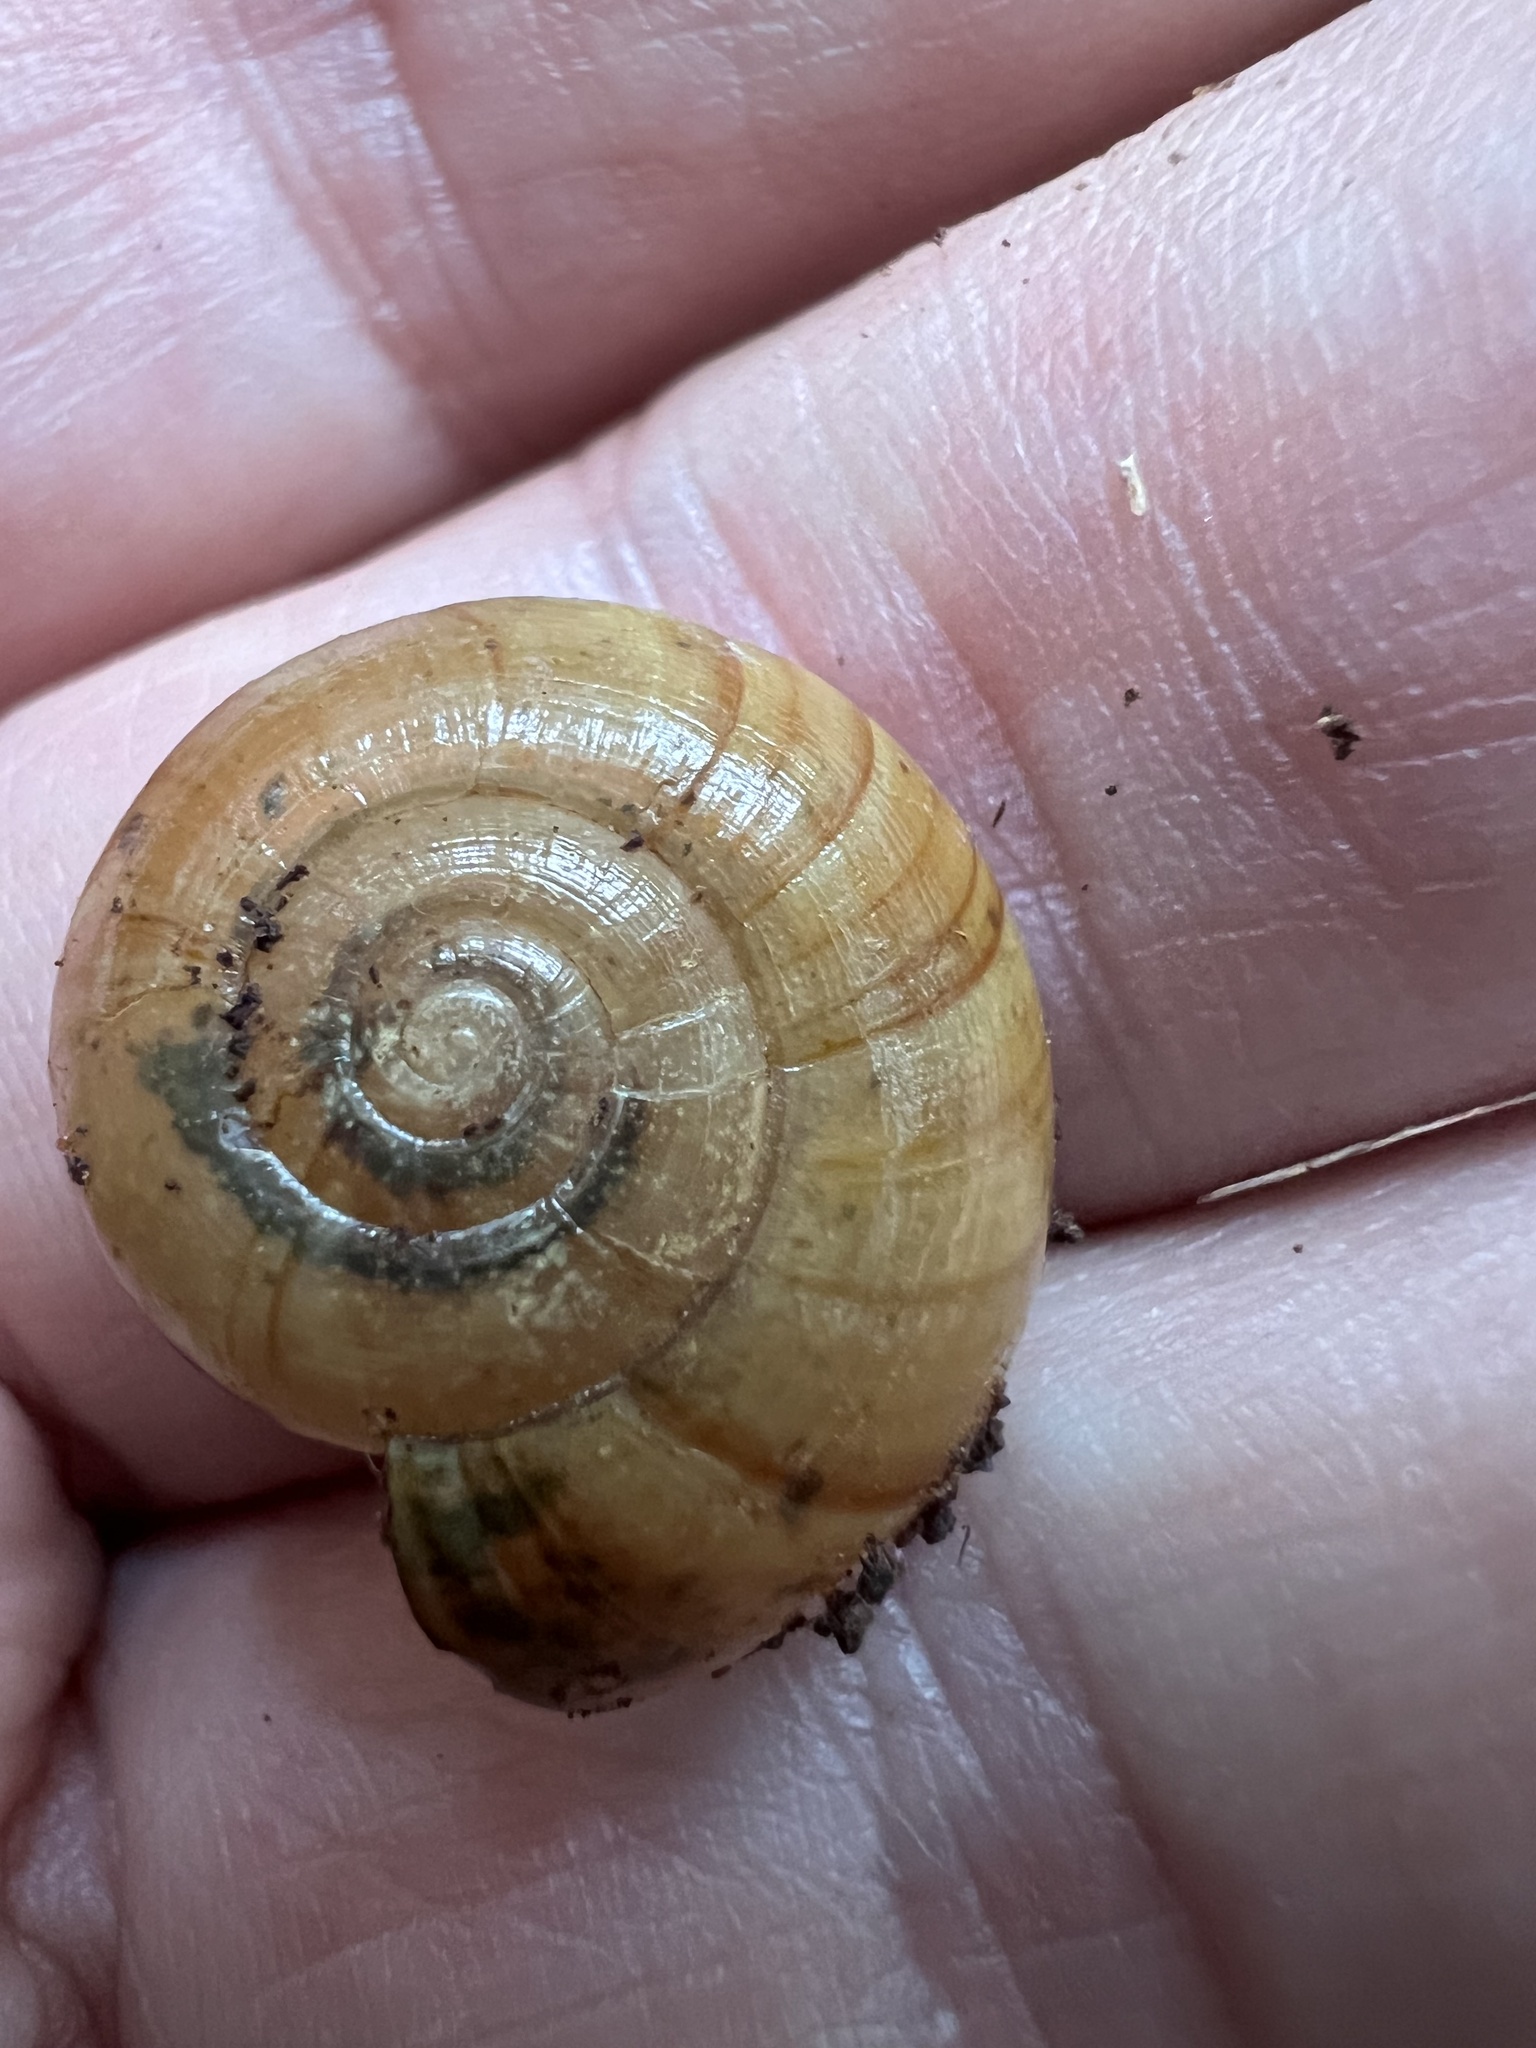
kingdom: Animalia
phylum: Mollusca
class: Gastropoda
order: Stylommatophora
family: Rhytididae
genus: Murphitella
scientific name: Murphitella froggatti
